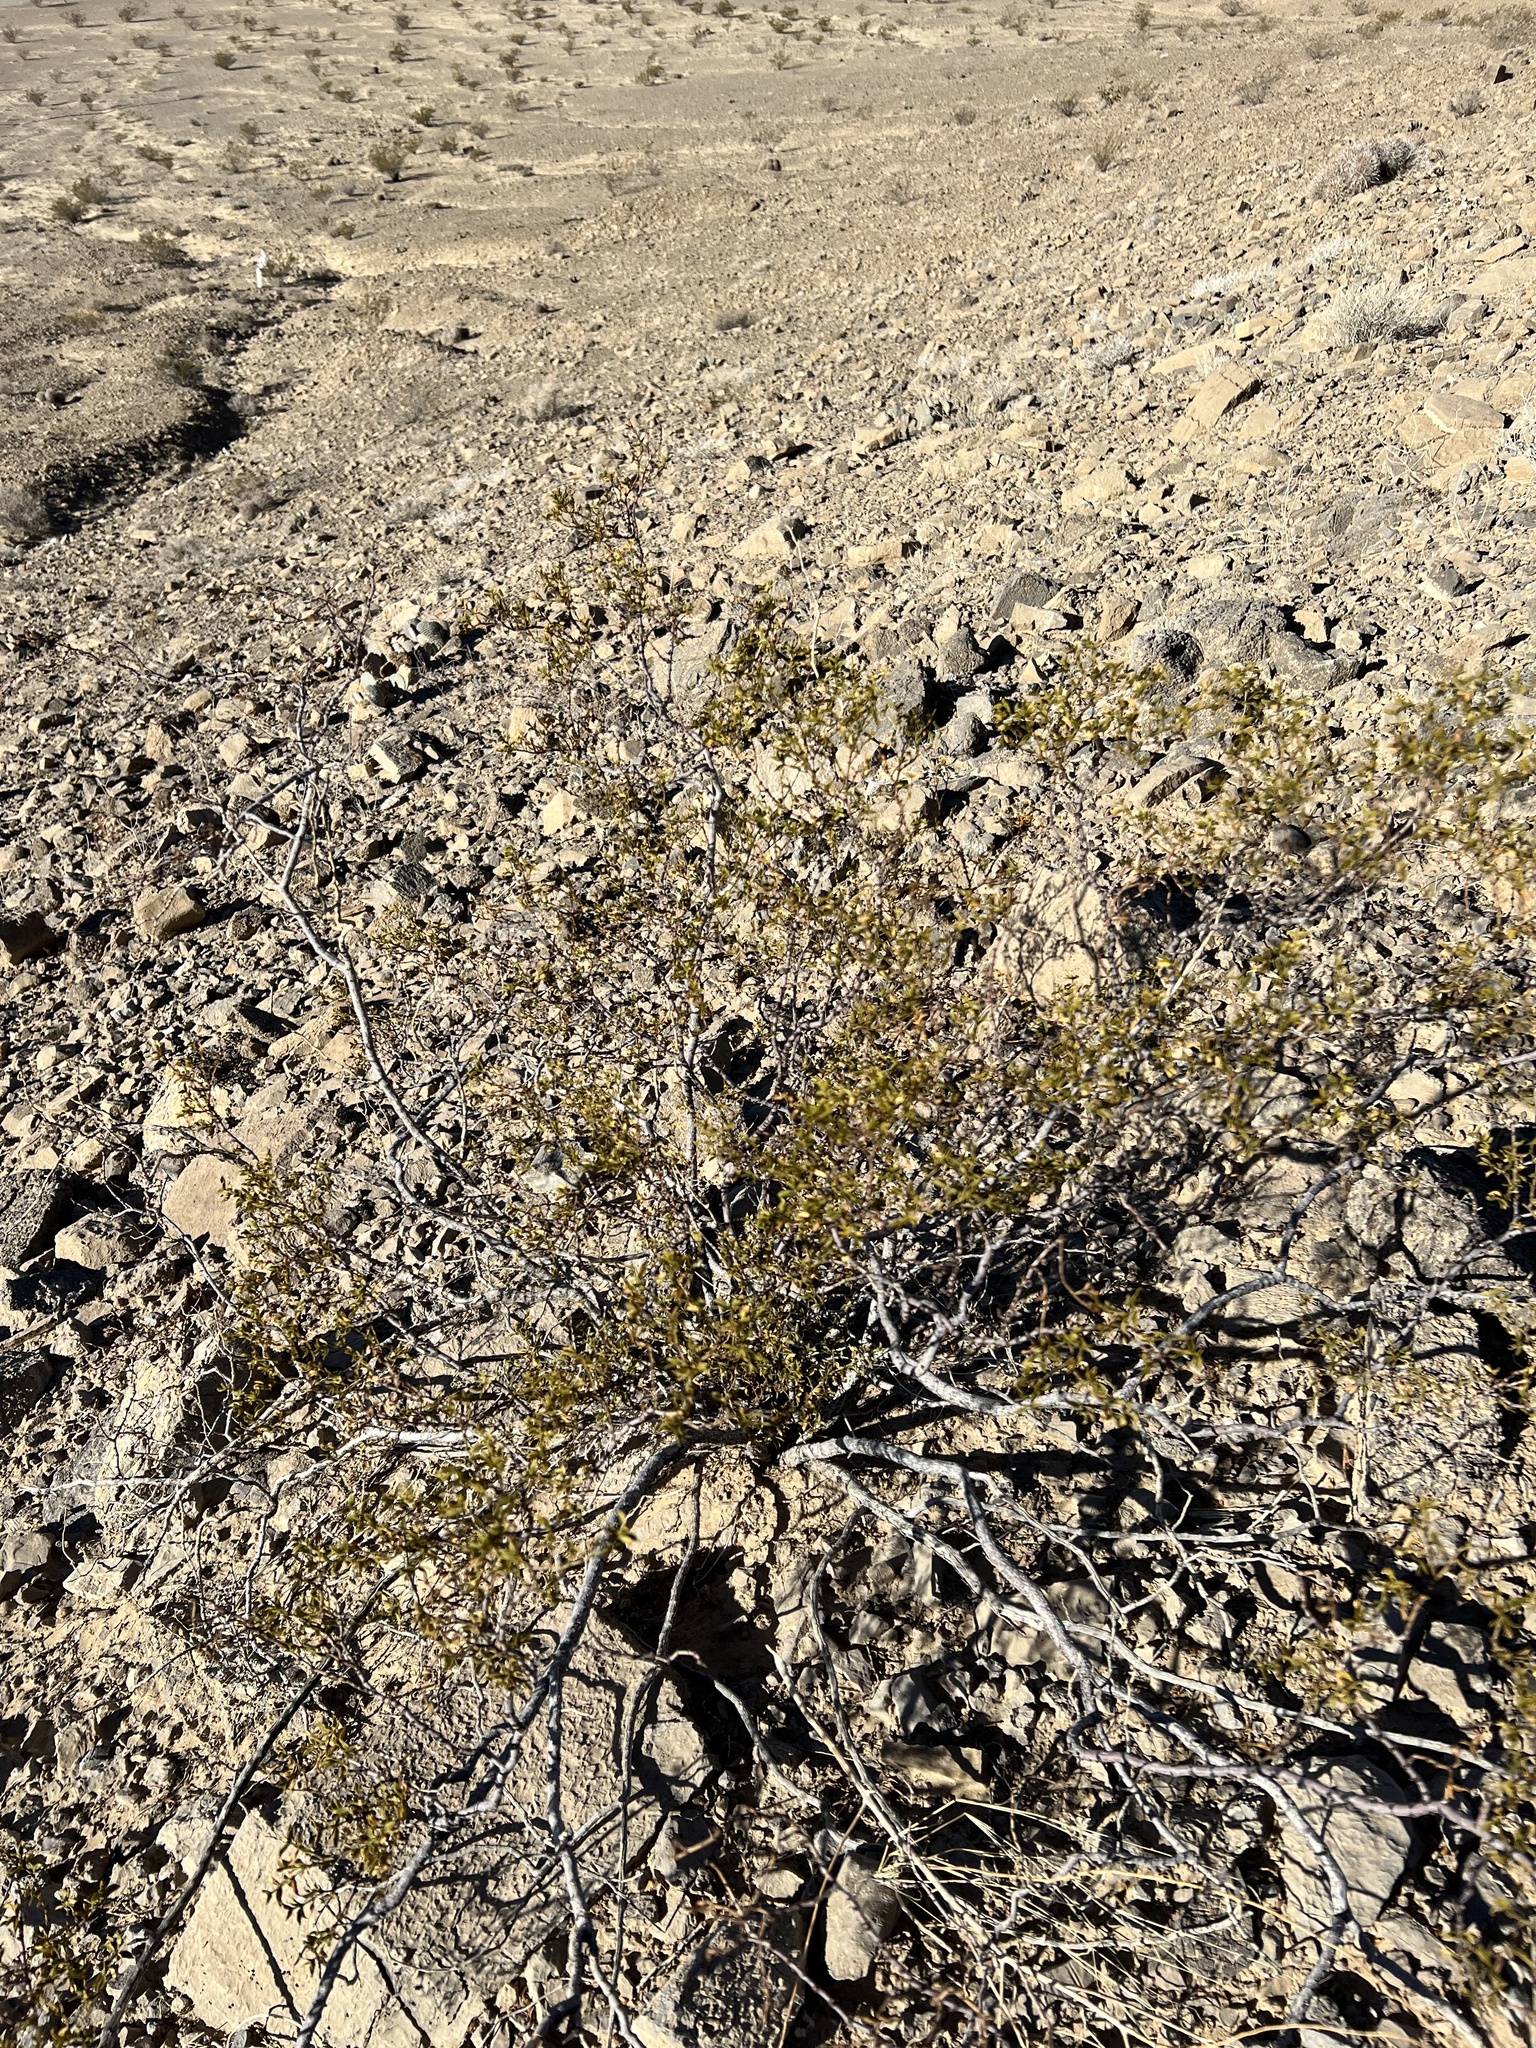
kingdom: Plantae
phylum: Tracheophyta
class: Magnoliopsida
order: Zygophyllales
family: Zygophyllaceae
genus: Larrea
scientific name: Larrea tridentata
